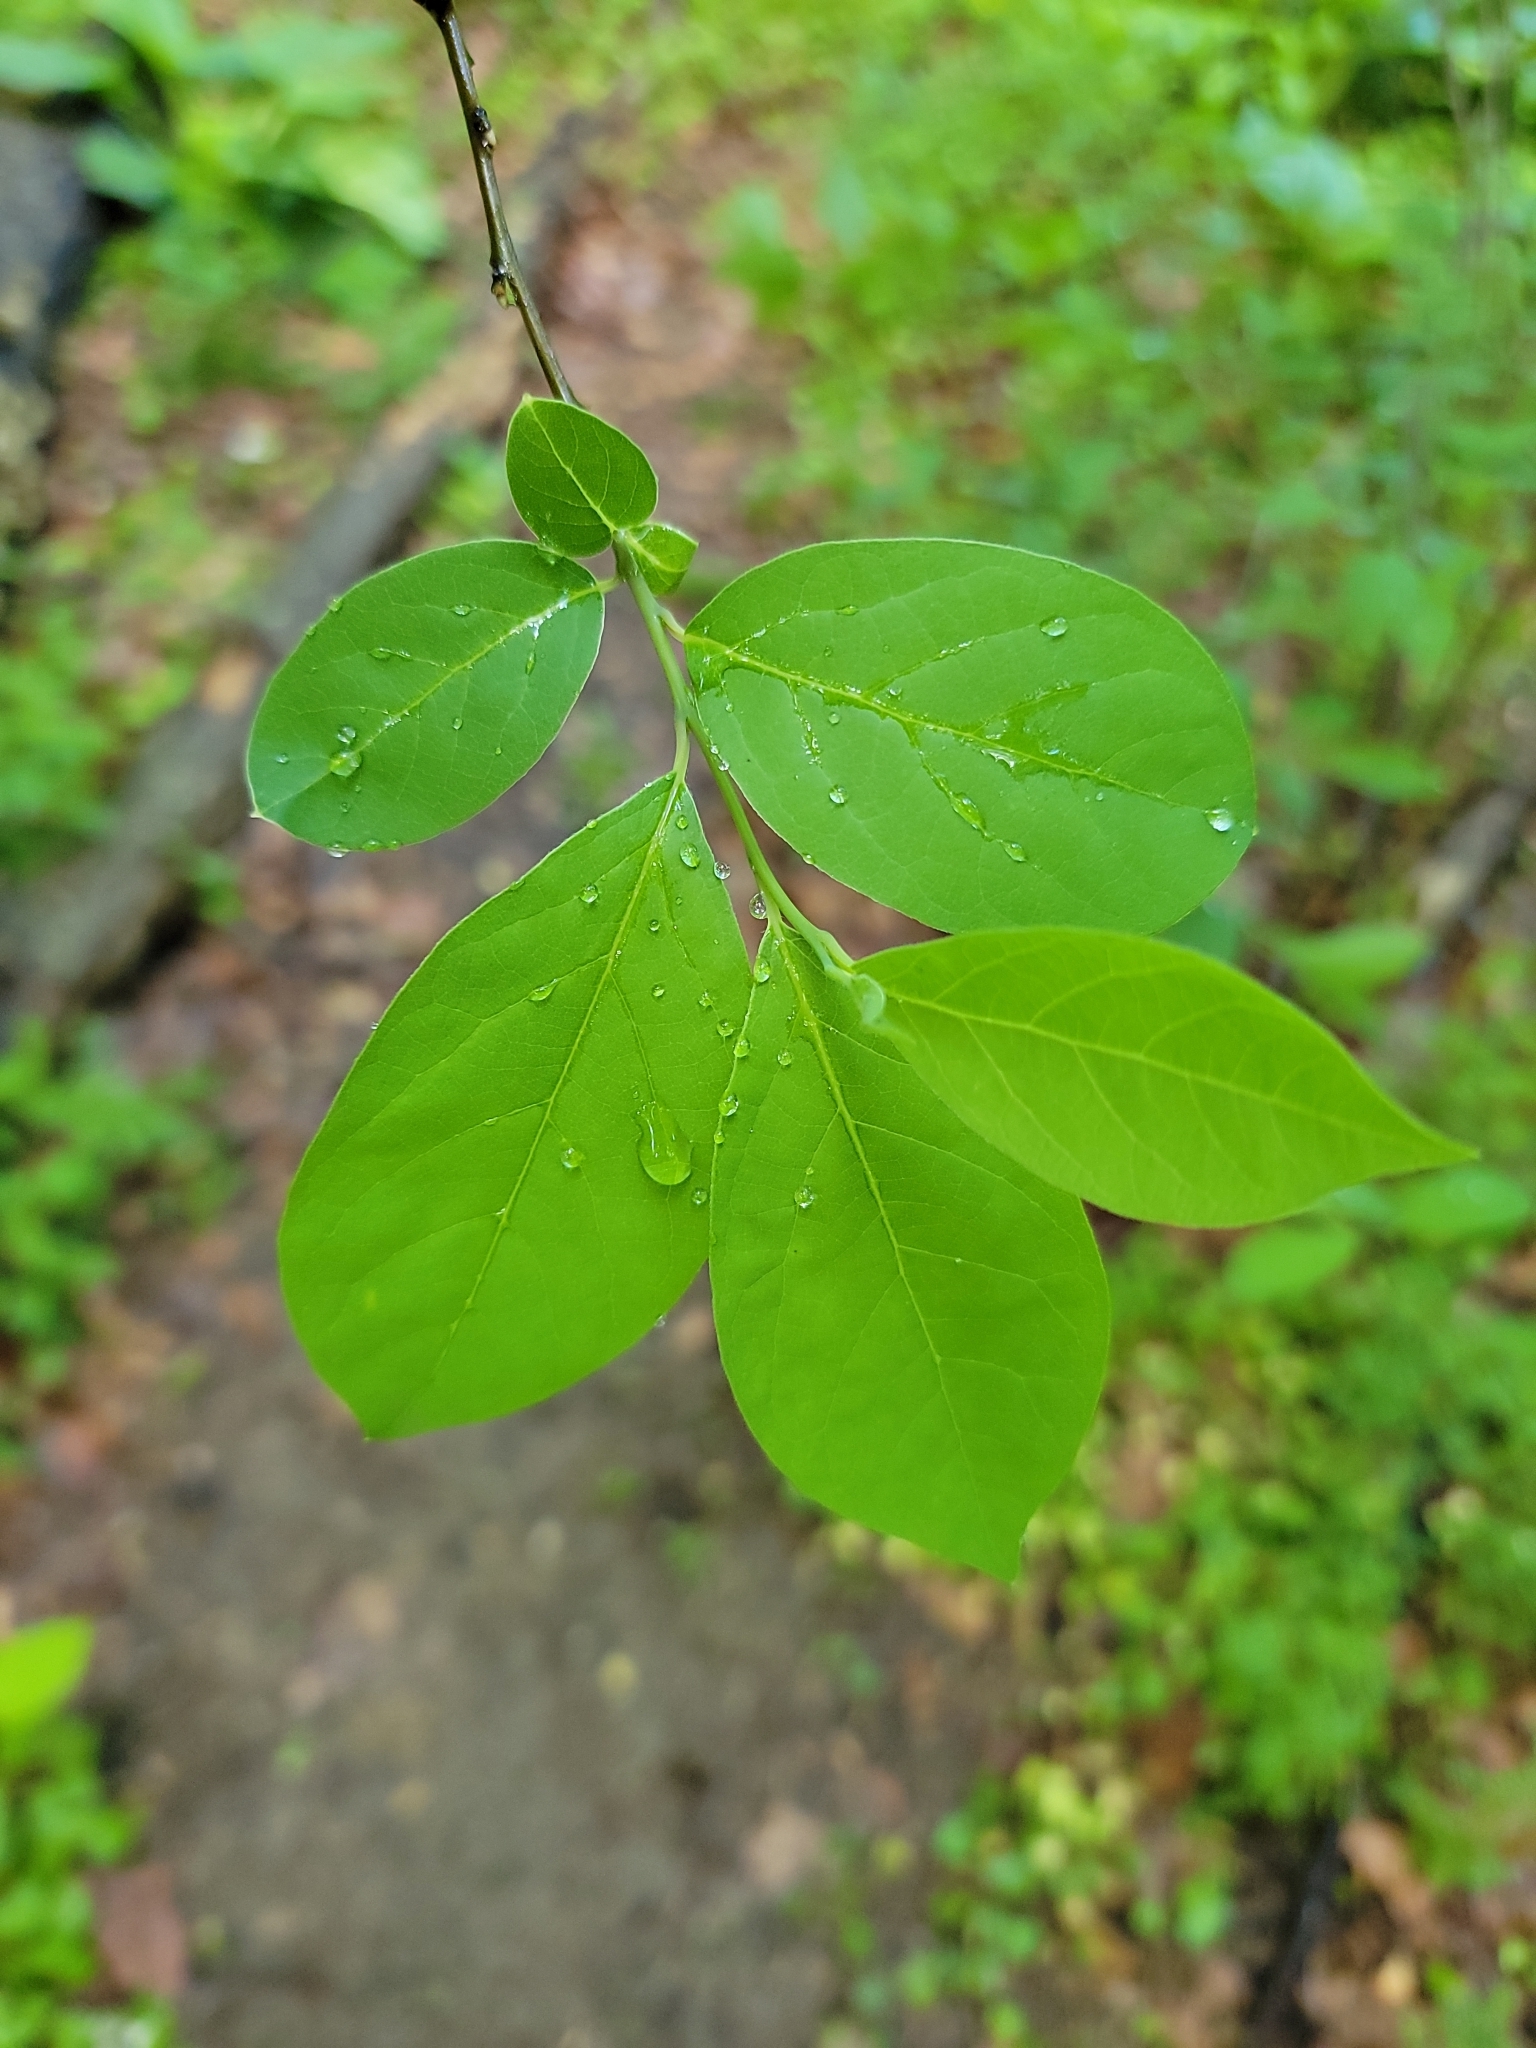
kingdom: Plantae
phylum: Tracheophyta
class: Magnoliopsida
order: Laurales
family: Lauraceae
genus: Lindera
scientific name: Lindera benzoin
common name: Spicebush
